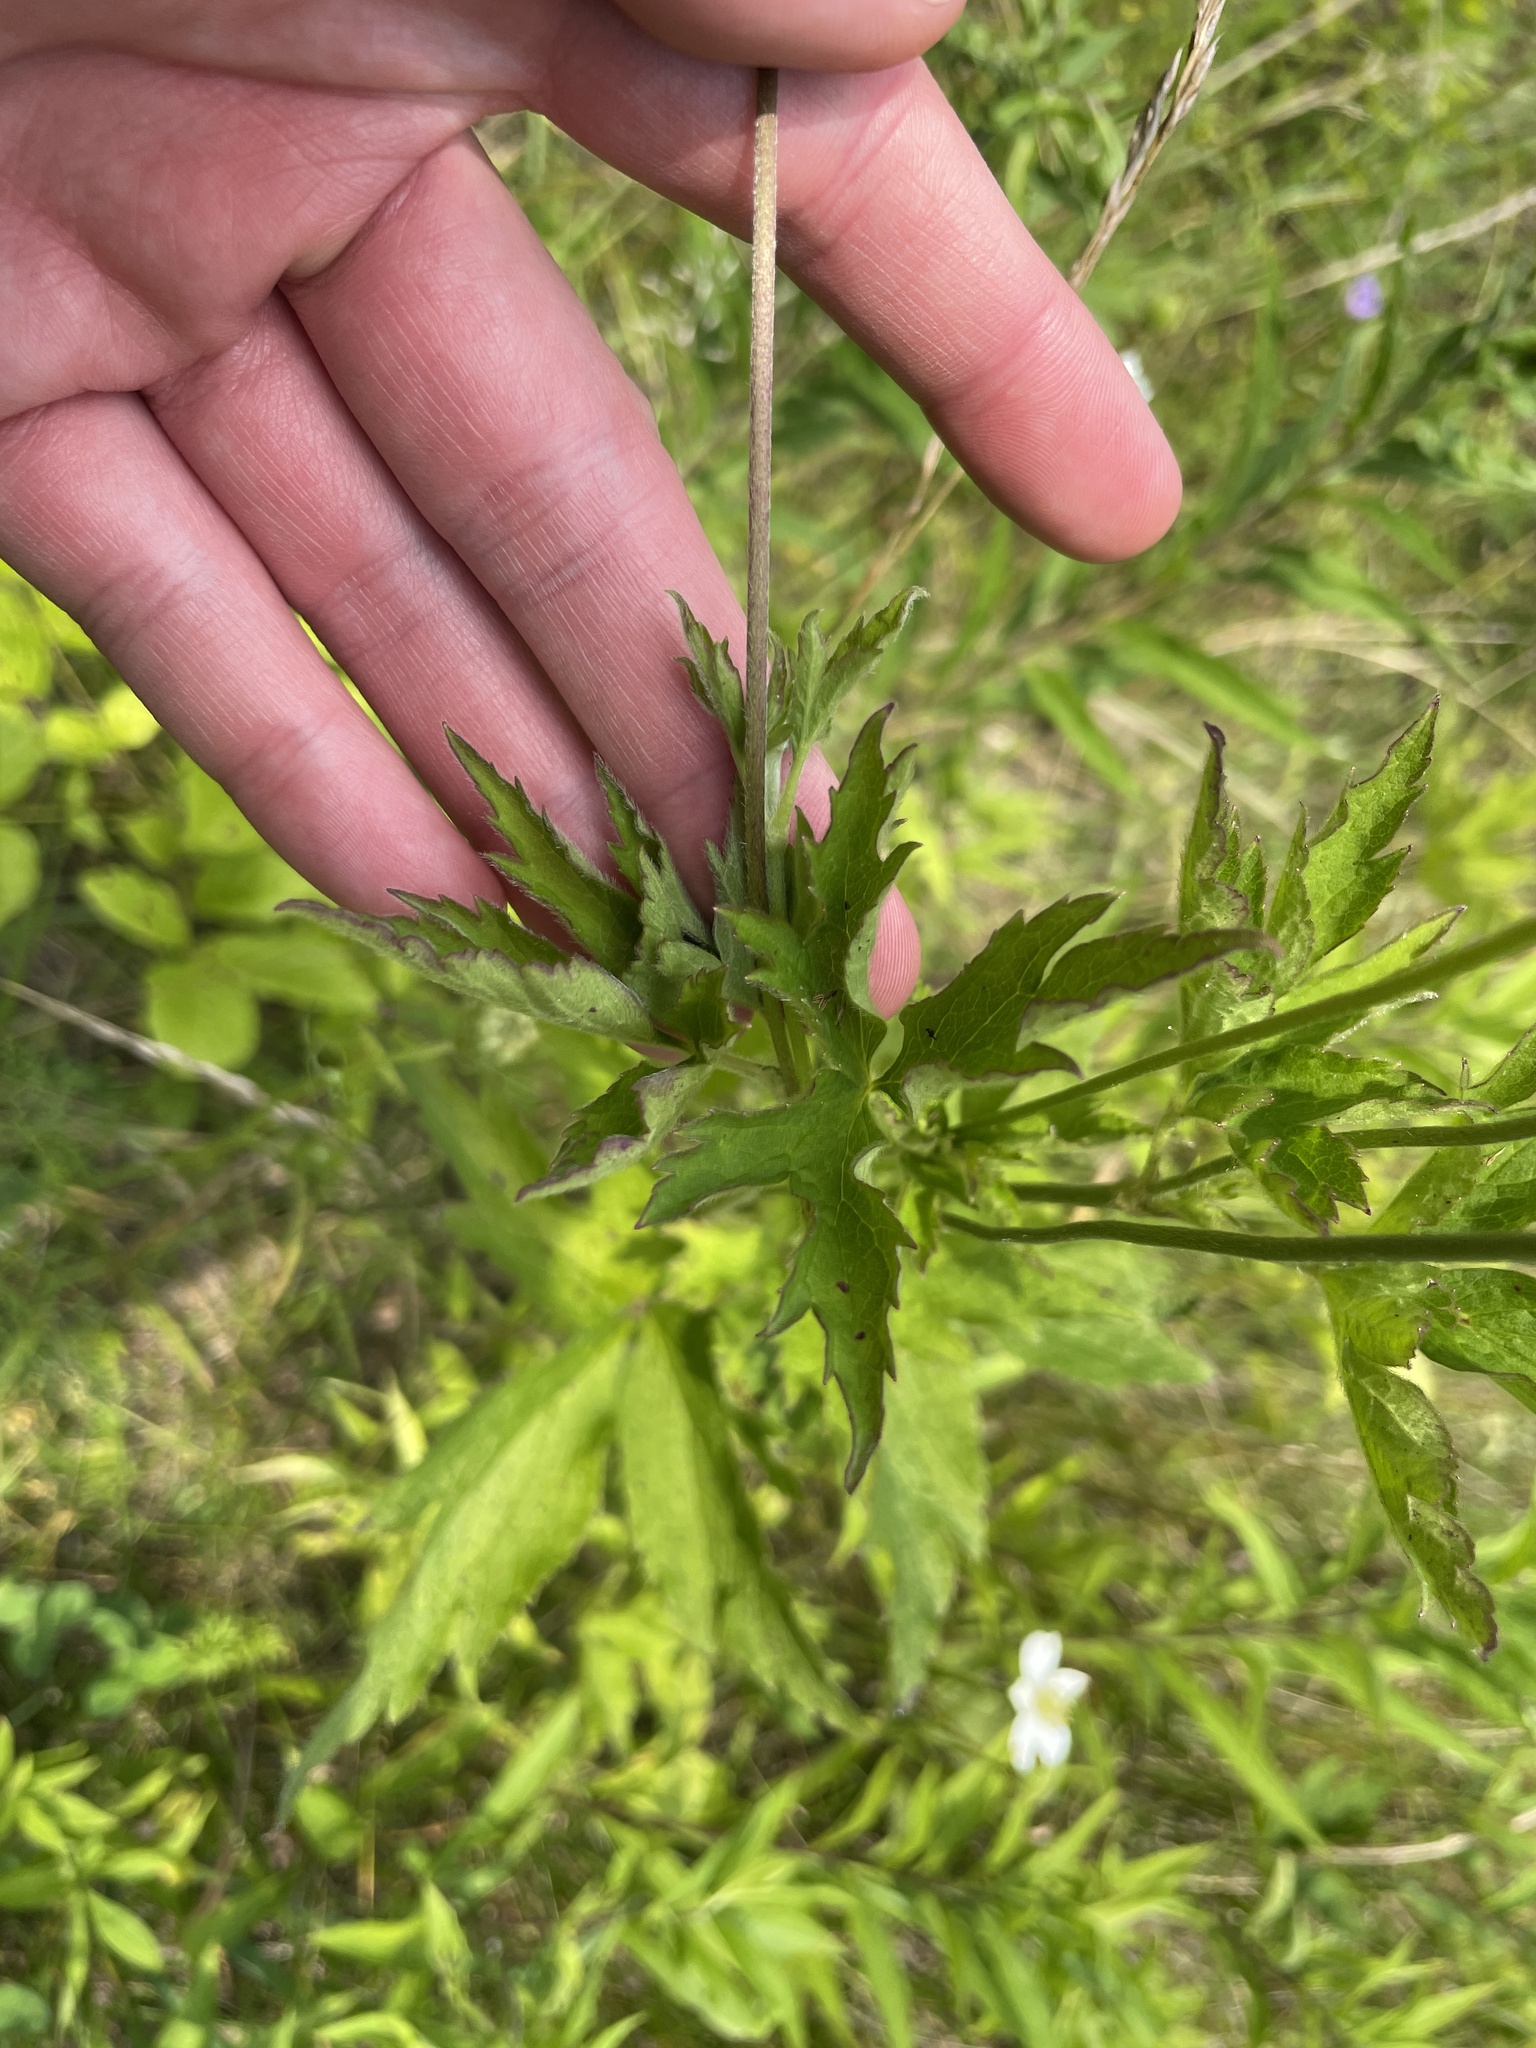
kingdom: Plantae
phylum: Tracheophyta
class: Magnoliopsida
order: Asterales
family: Asteraceae
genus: Cichorium
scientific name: Cichorium intybus
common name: Chicory
